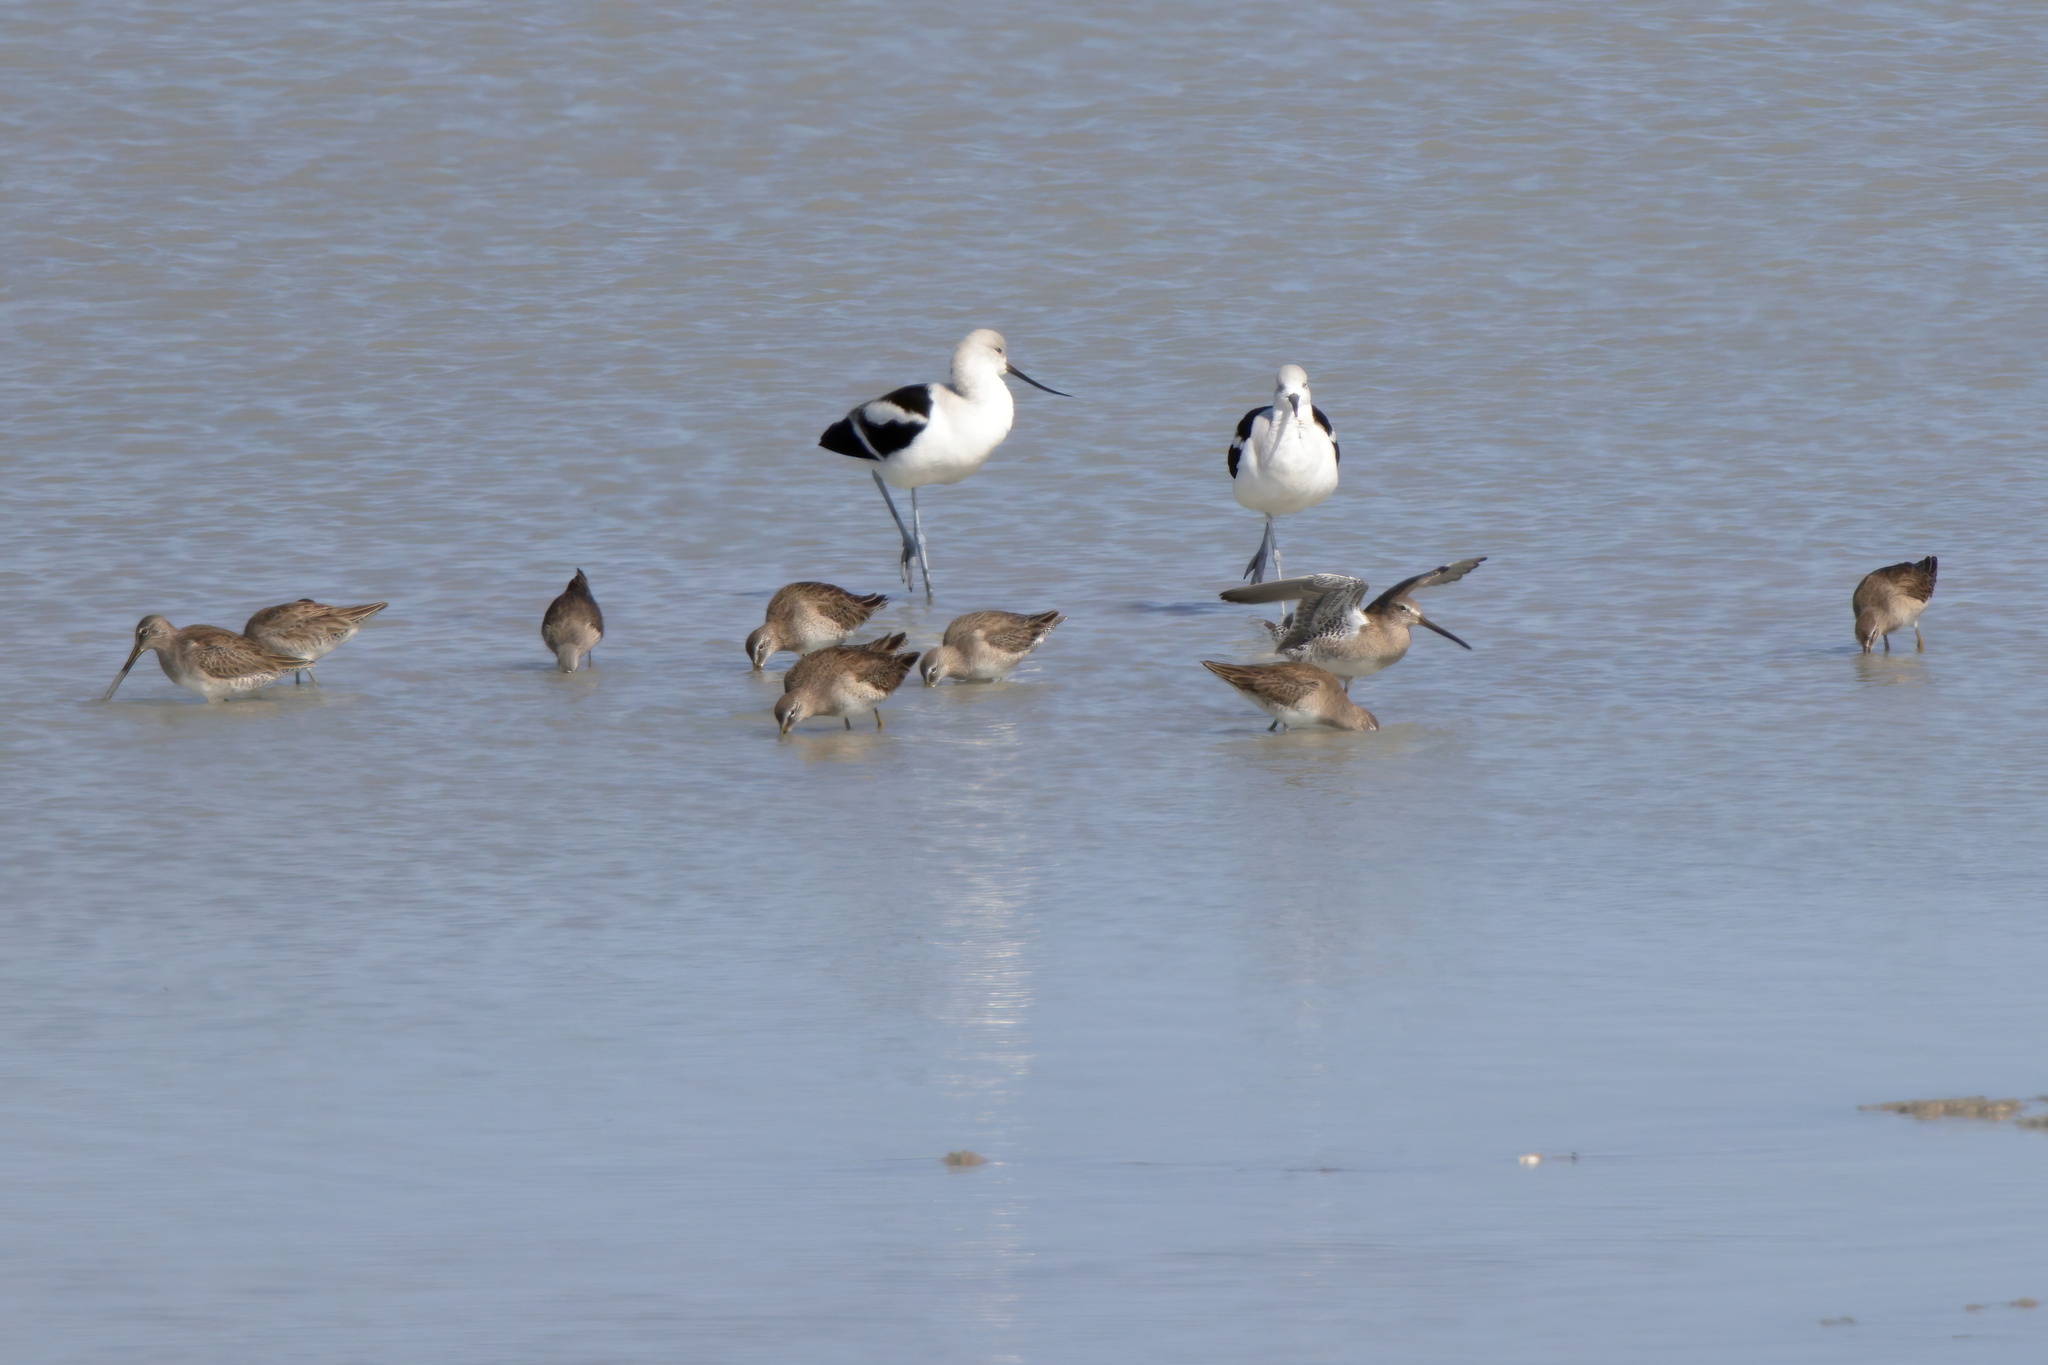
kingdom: Animalia
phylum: Chordata
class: Aves
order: Charadriiformes
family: Scolopacidae
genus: Limnodromus
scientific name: Limnodromus scolopaceus
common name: Long-billed dowitcher
